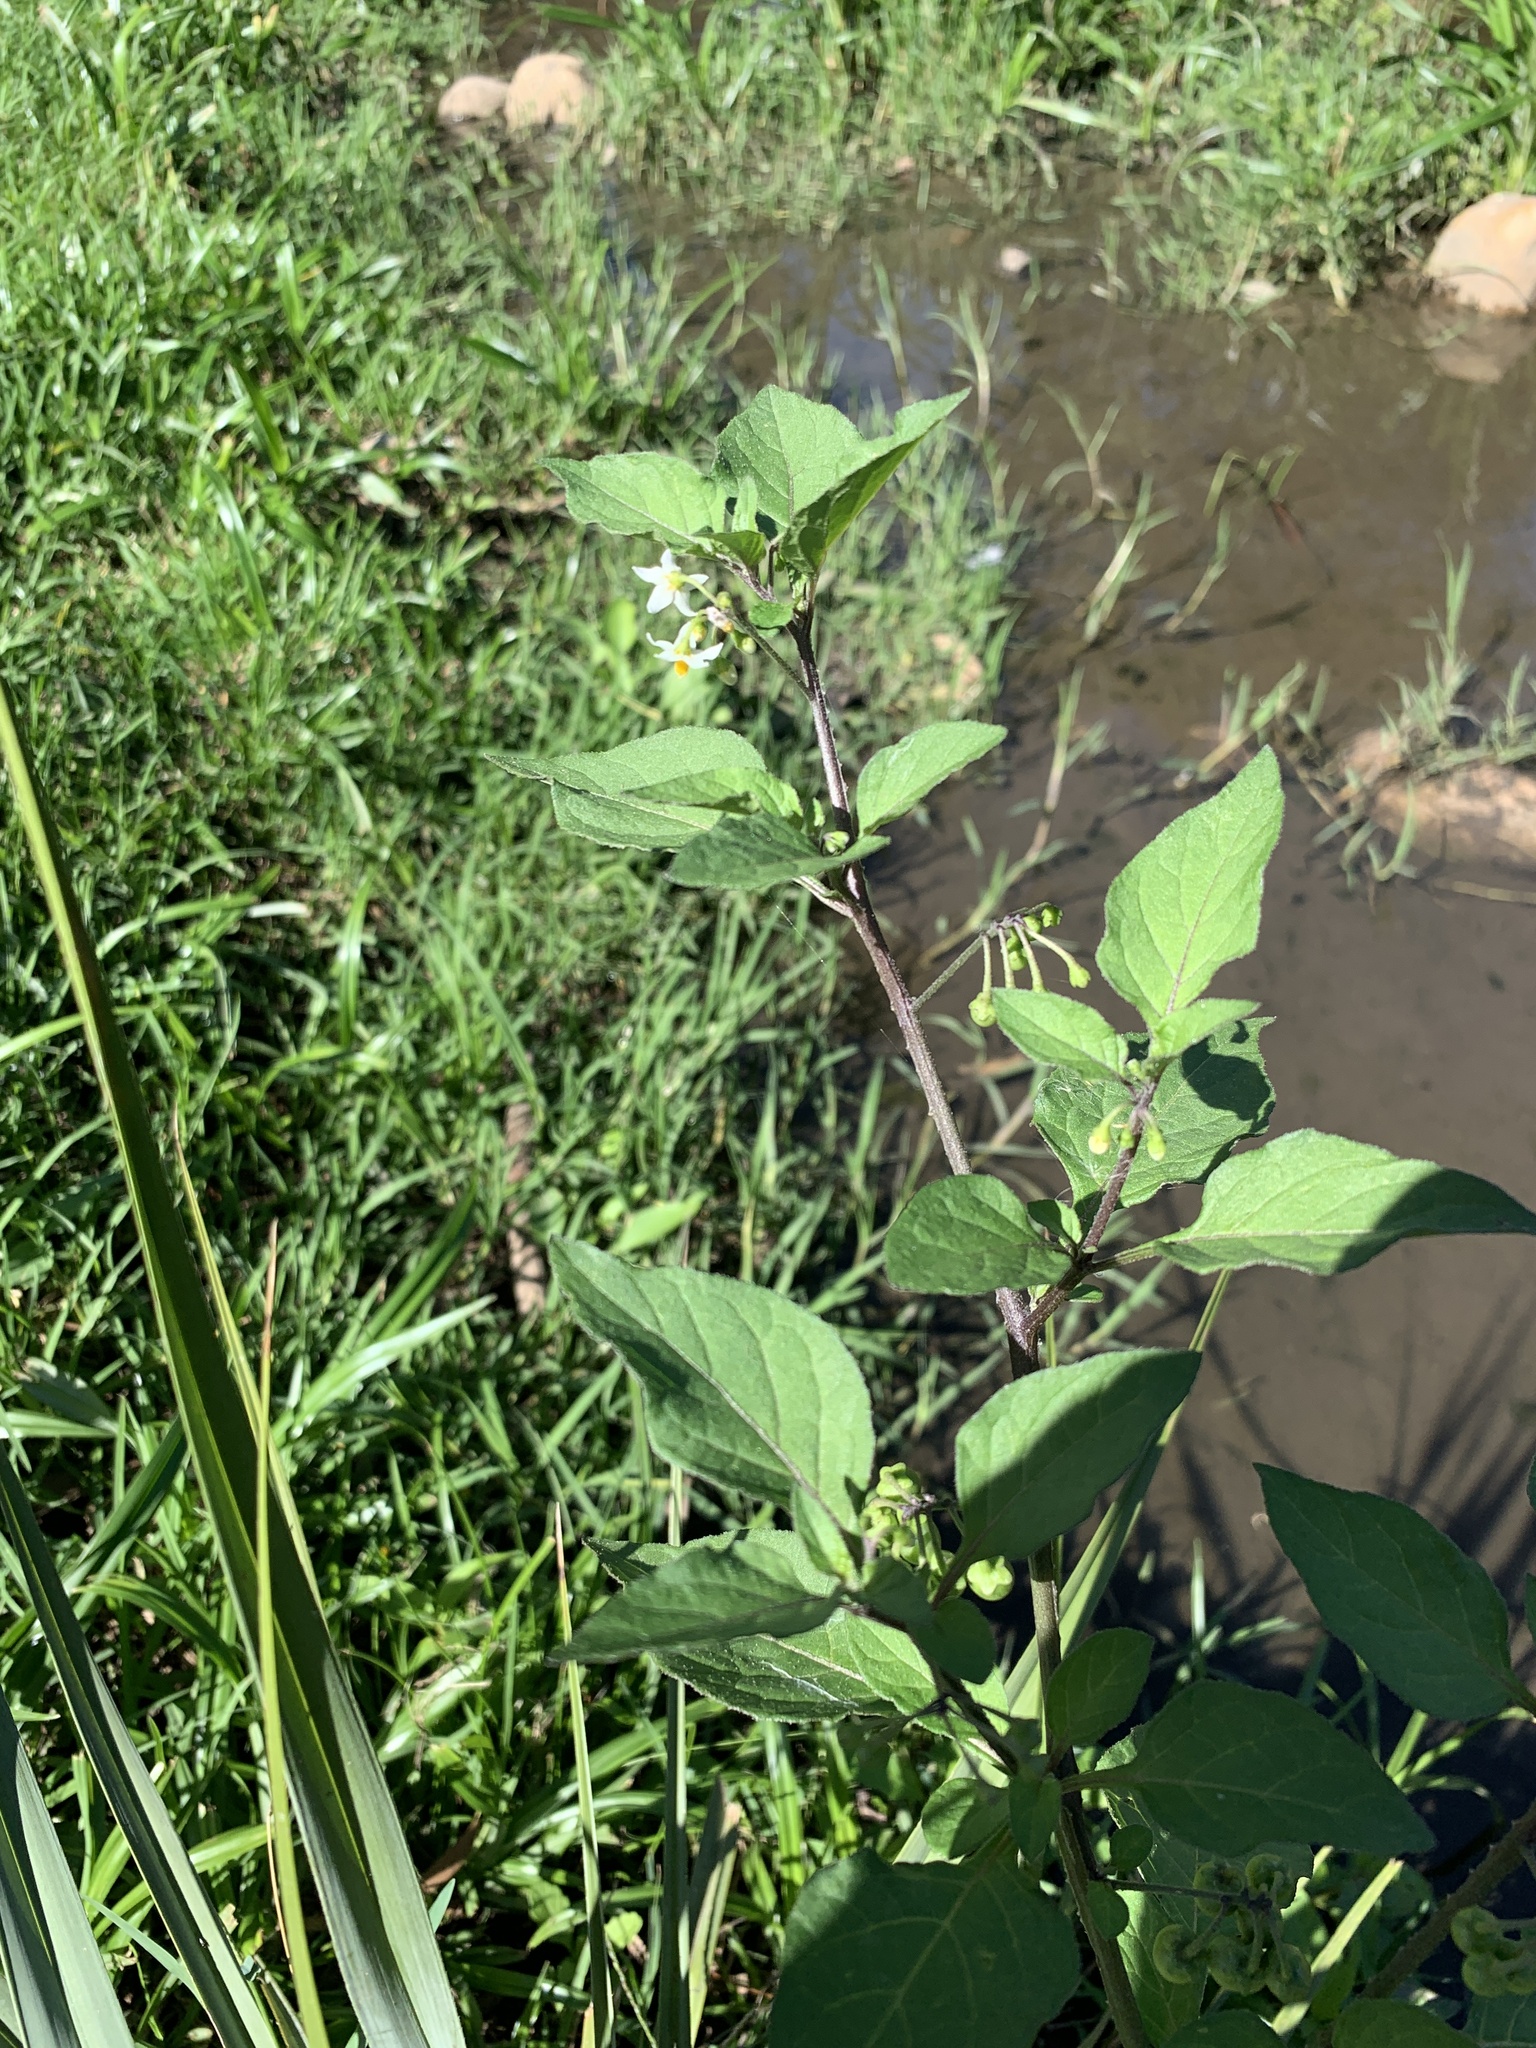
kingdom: Plantae
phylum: Tracheophyta
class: Magnoliopsida
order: Solanales
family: Solanaceae
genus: Solanum
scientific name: Solanum nigrum
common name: Black nightshade
